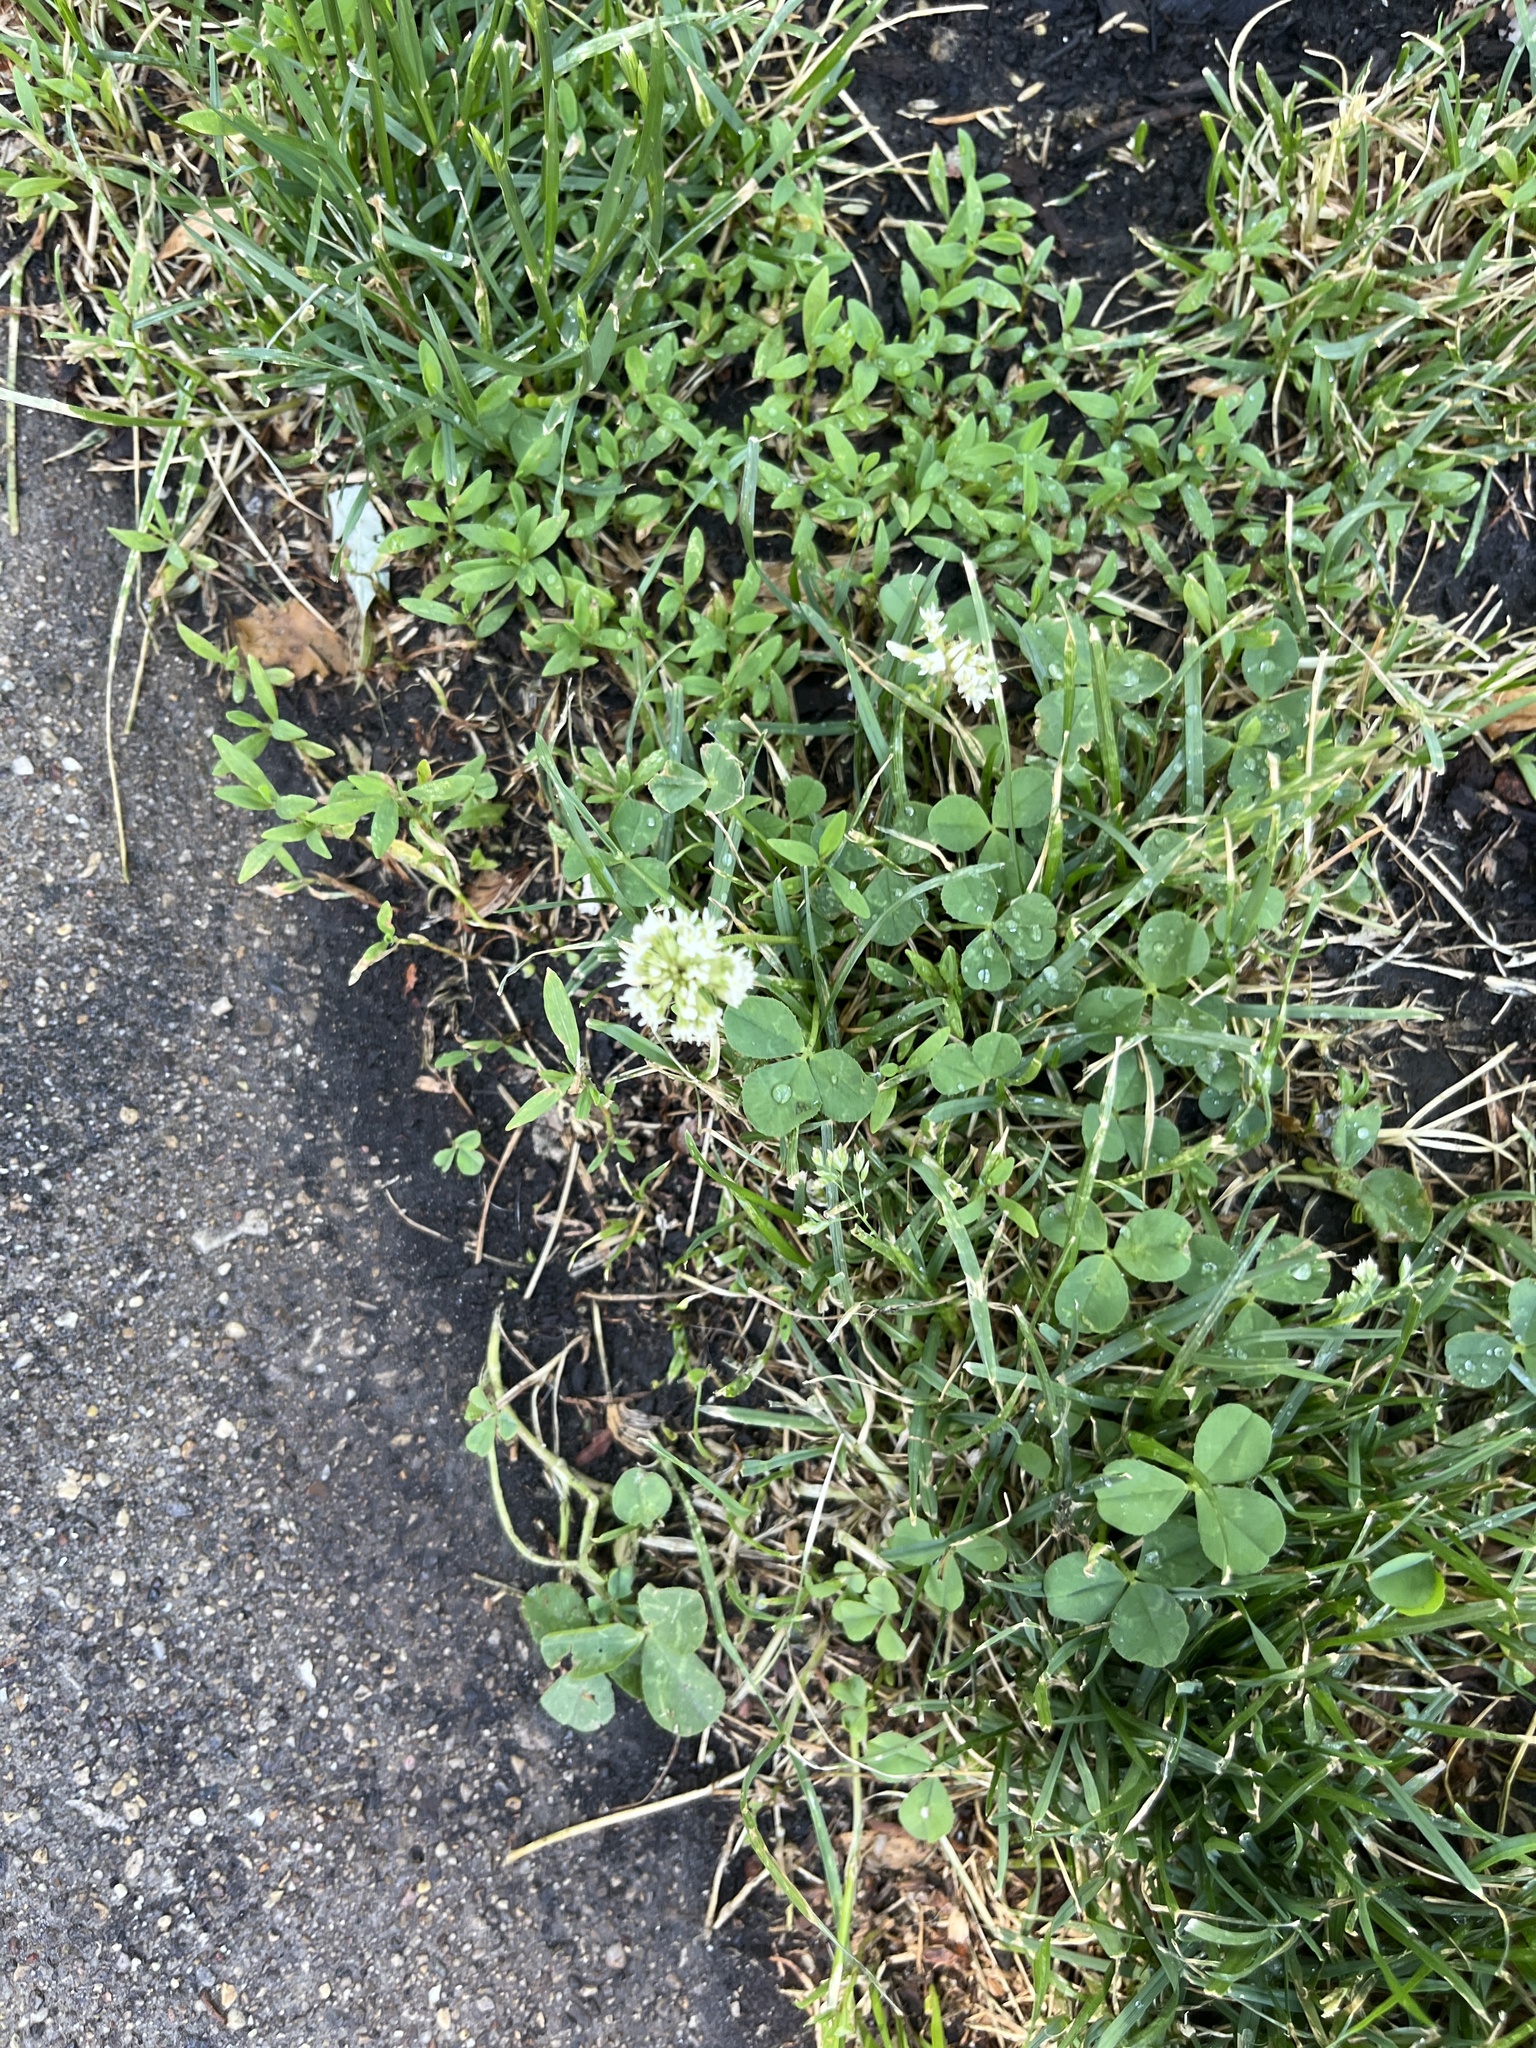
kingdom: Plantae
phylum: Tracheophyta
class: Magnoliopsida
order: Fabales
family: Fabaceae
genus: Trifolium
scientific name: Trifolium repens
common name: White clover
